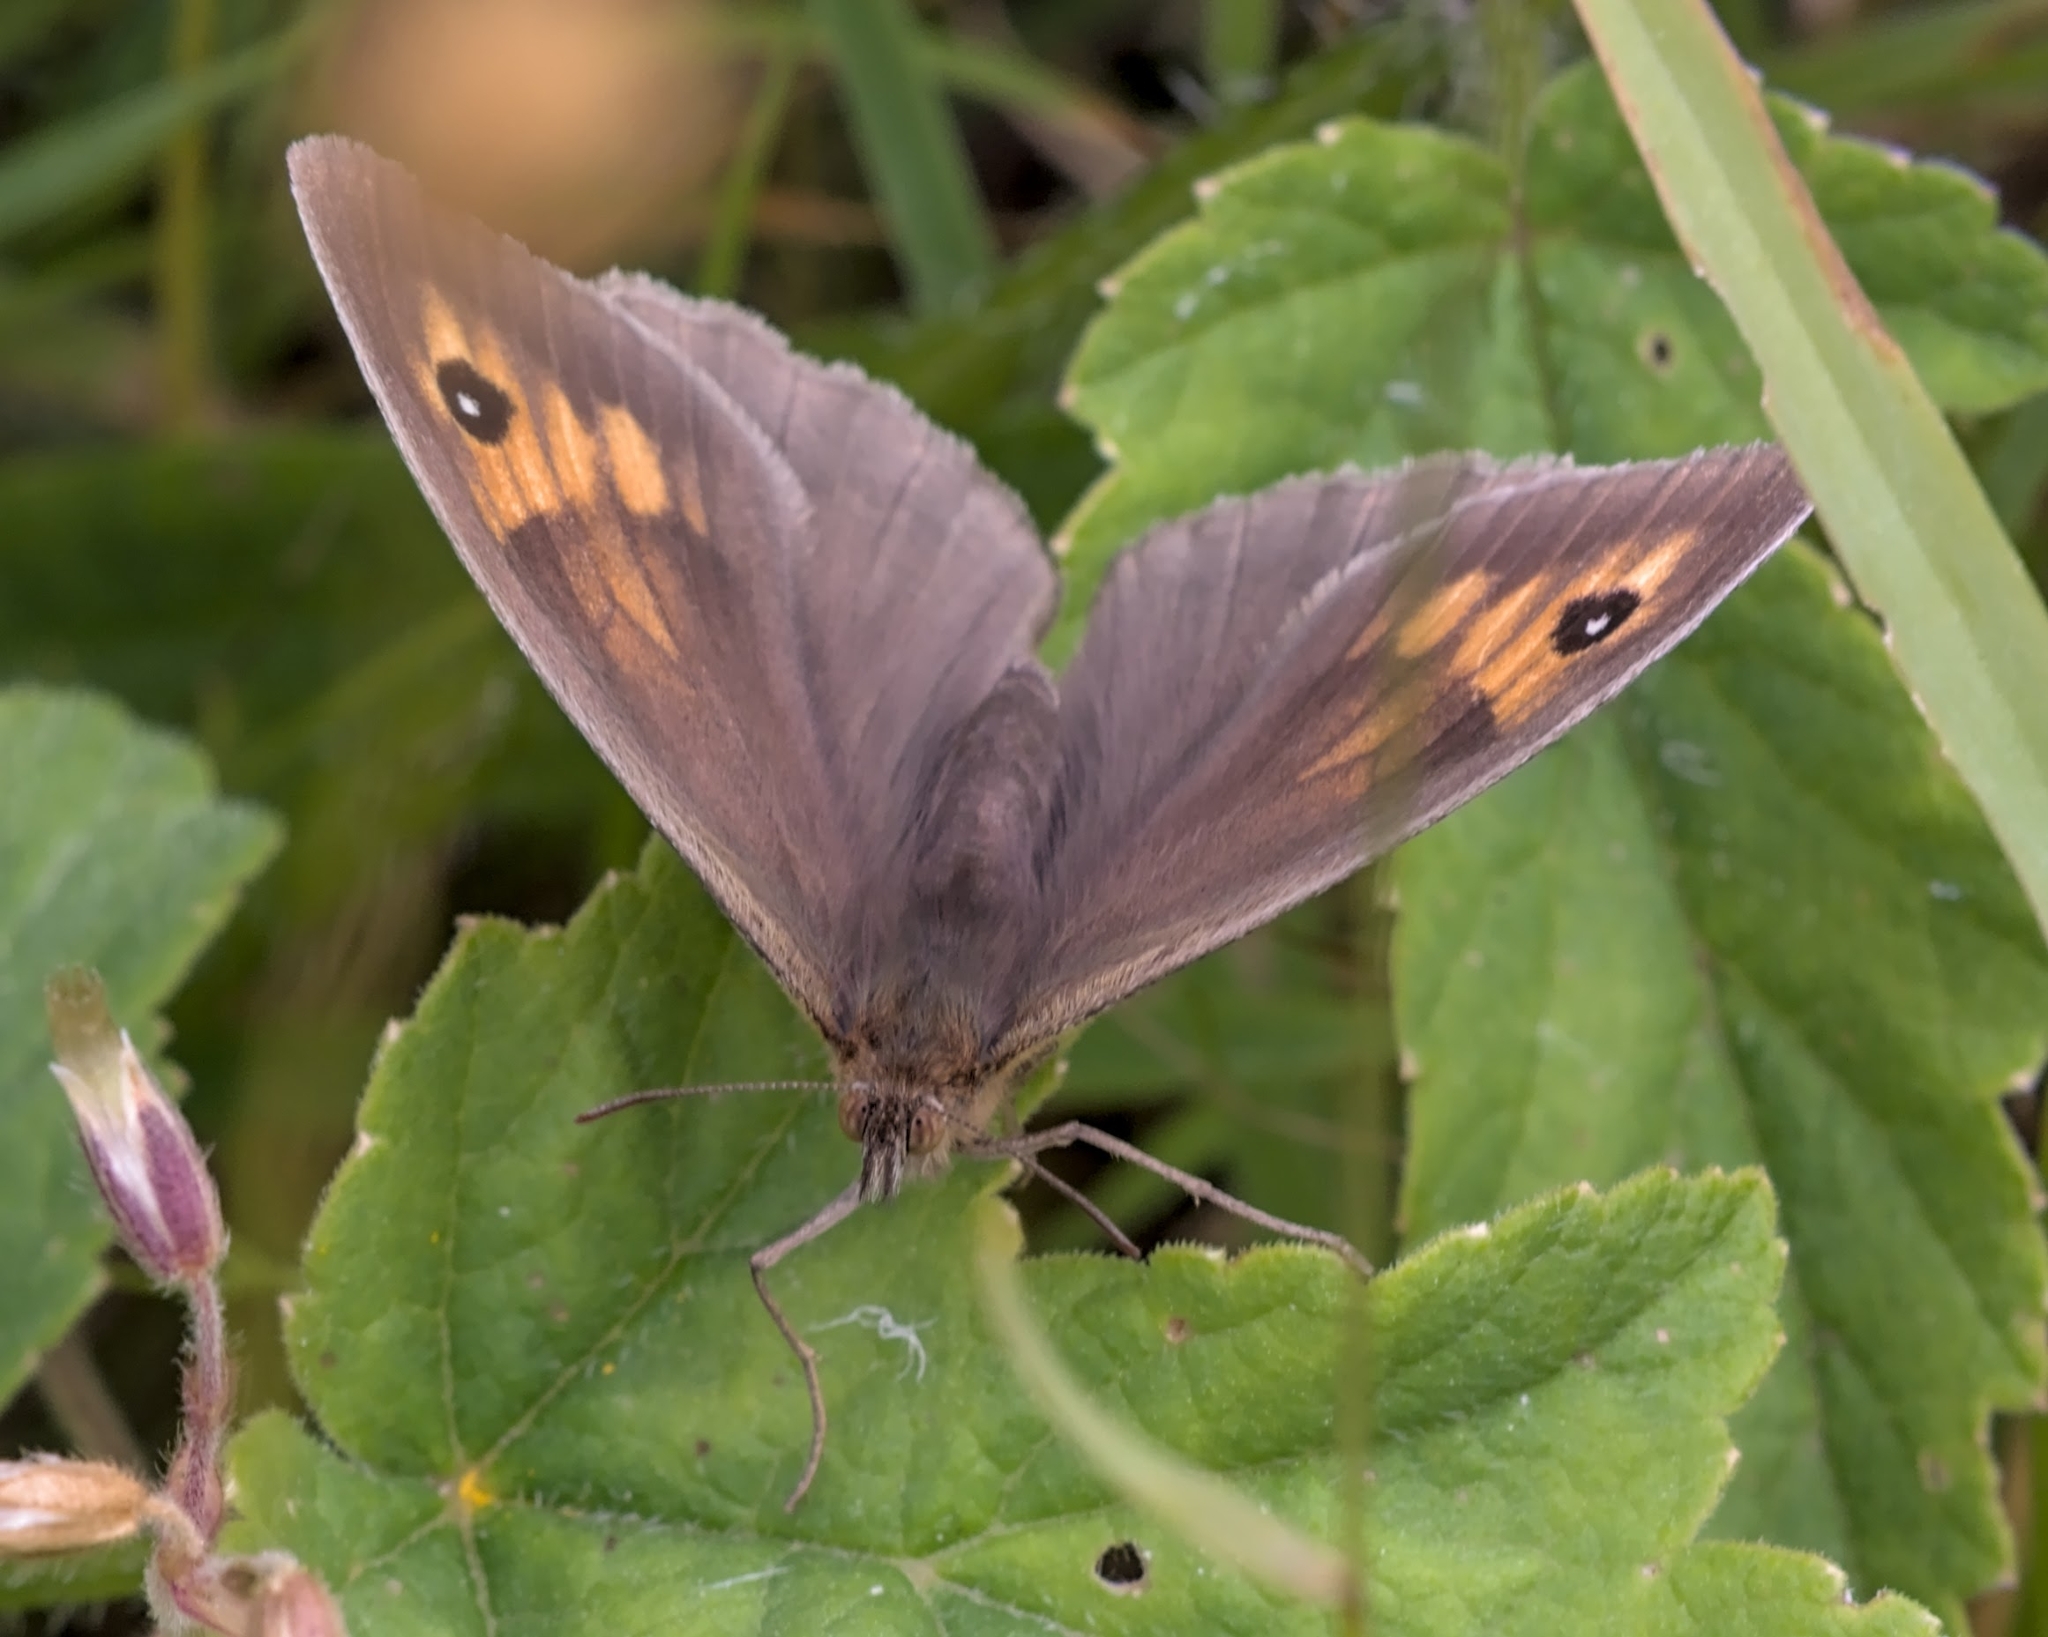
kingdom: Animalia
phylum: Arthropoda
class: Insecta
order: Lepidoptera
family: Nymphalidae
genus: Maniola
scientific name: Maniola jurtina
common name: Meadow brown
